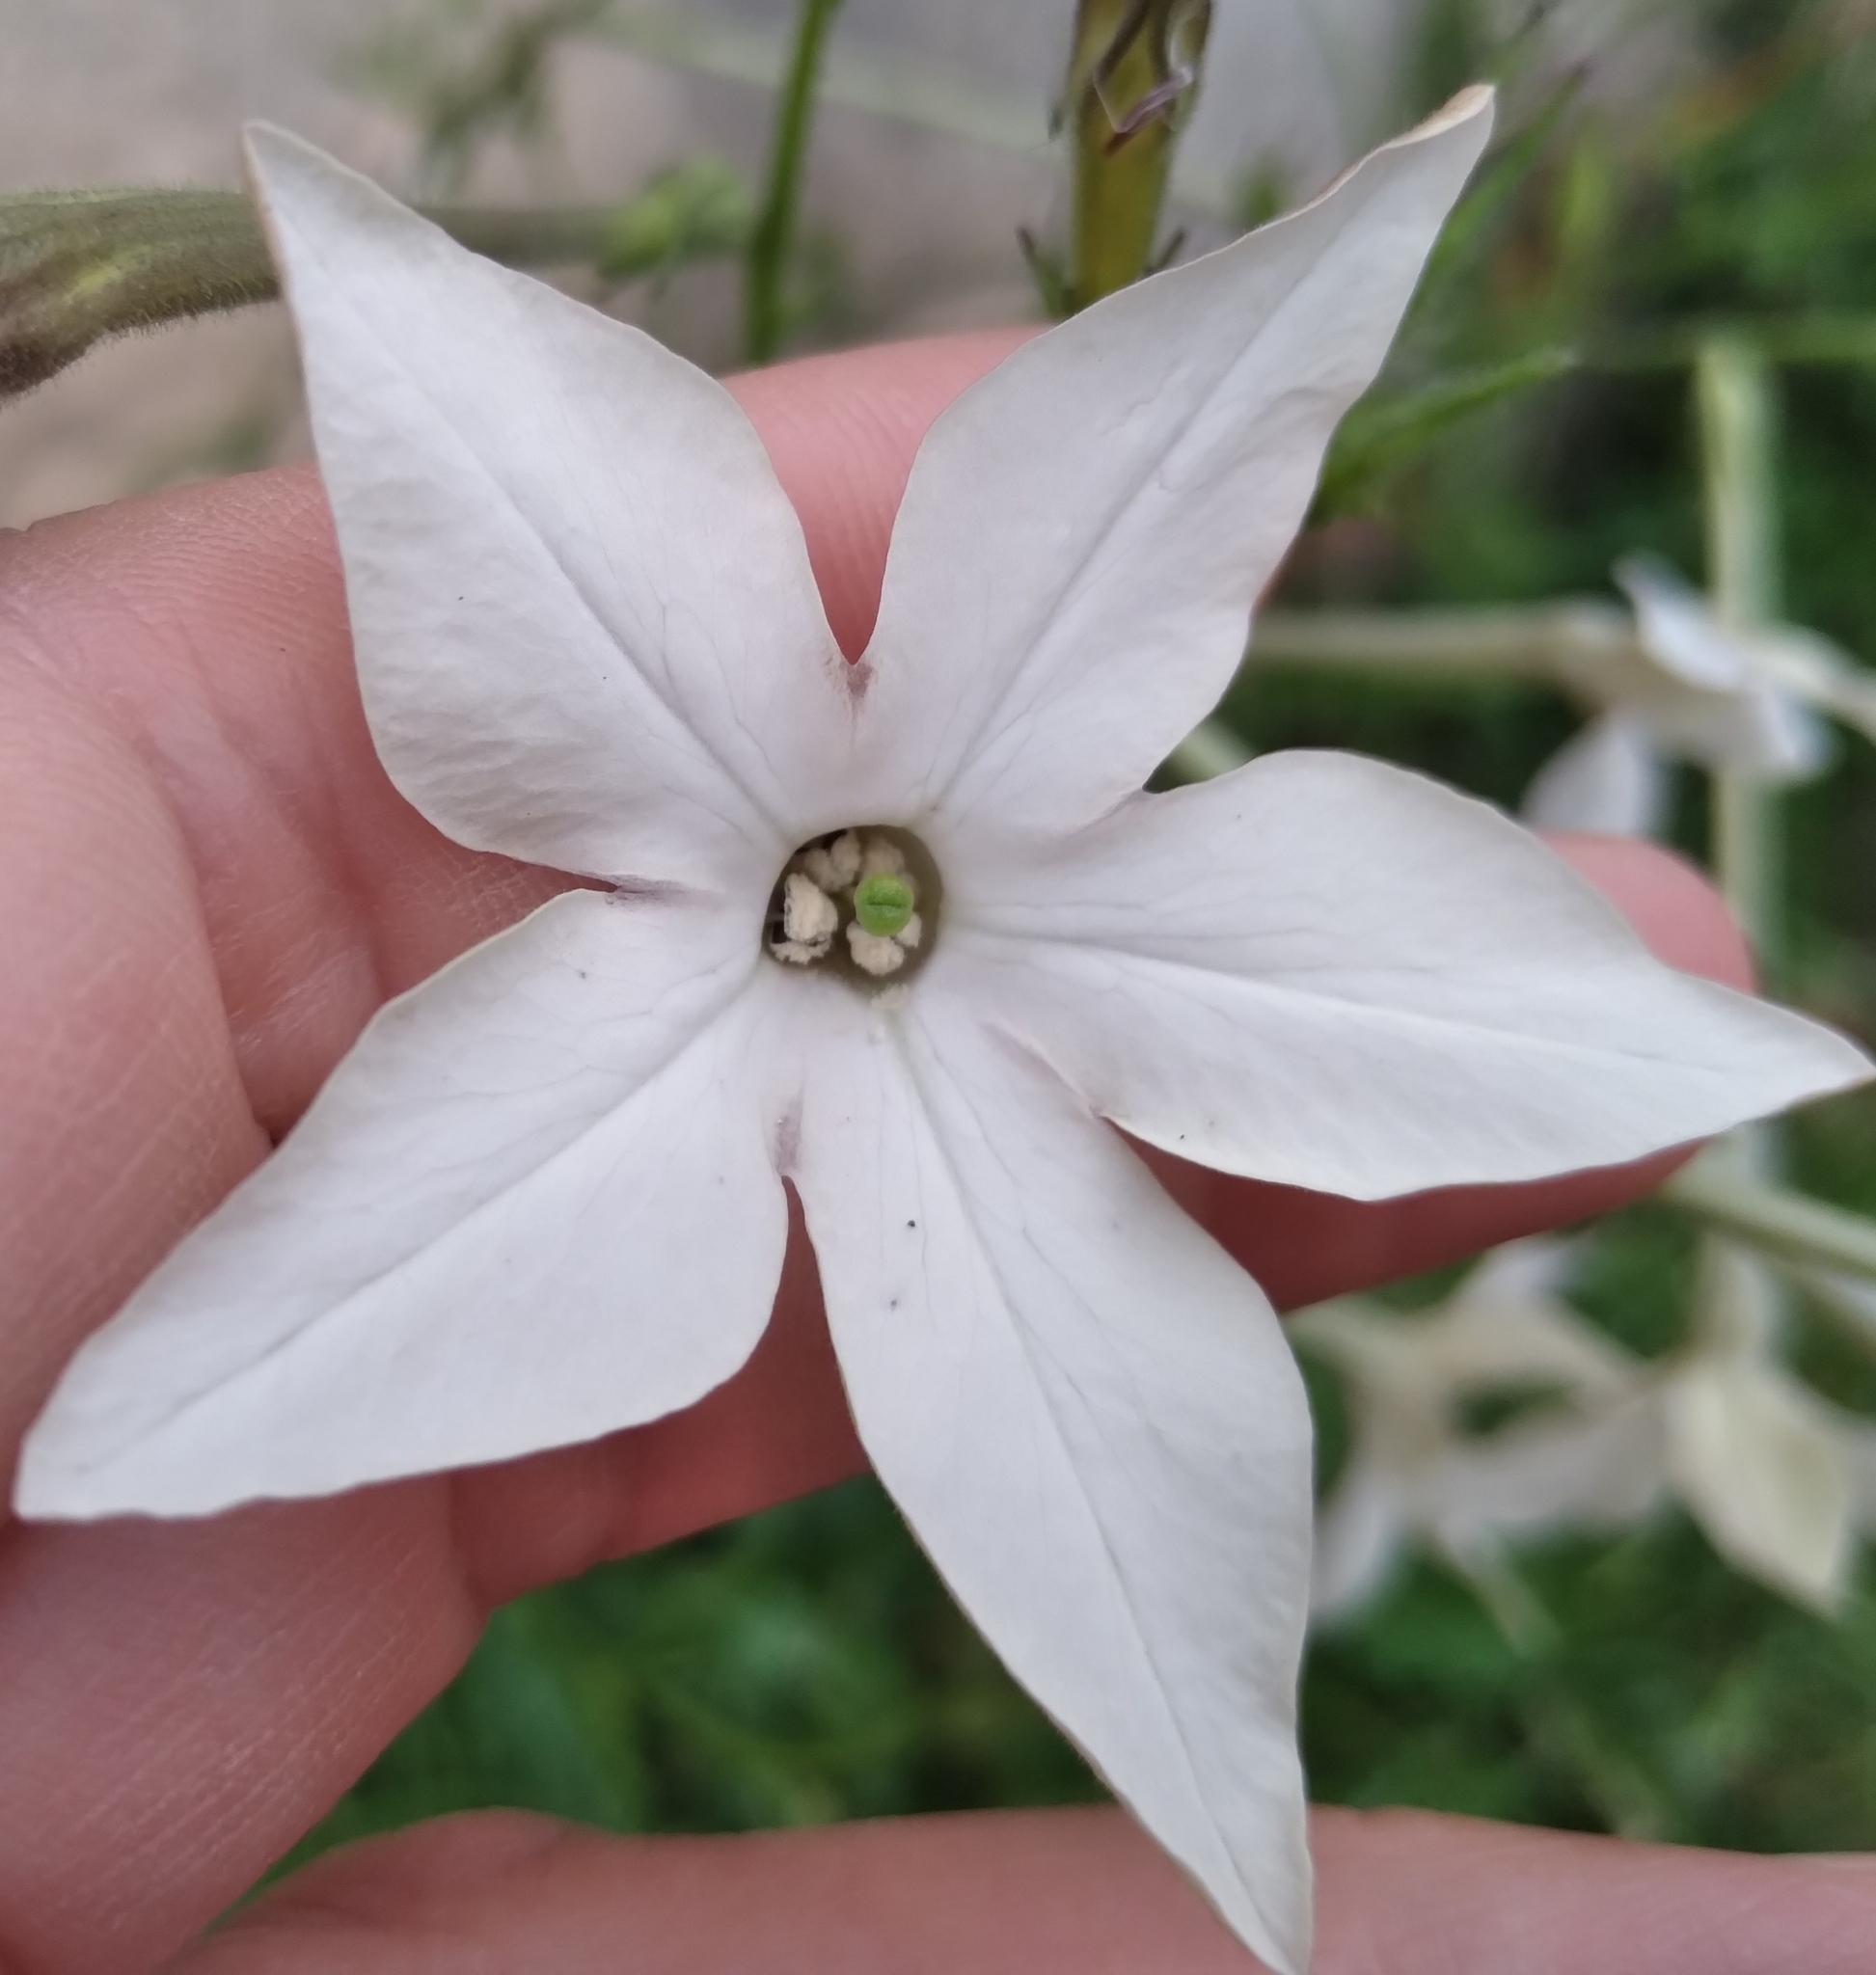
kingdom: Plantae
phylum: Tracheophyta
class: Magnoliopsida
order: Solanales
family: Solanaceae
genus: Nicotiana
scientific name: Nicotiana longiflora
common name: Long-flowered tobacco
